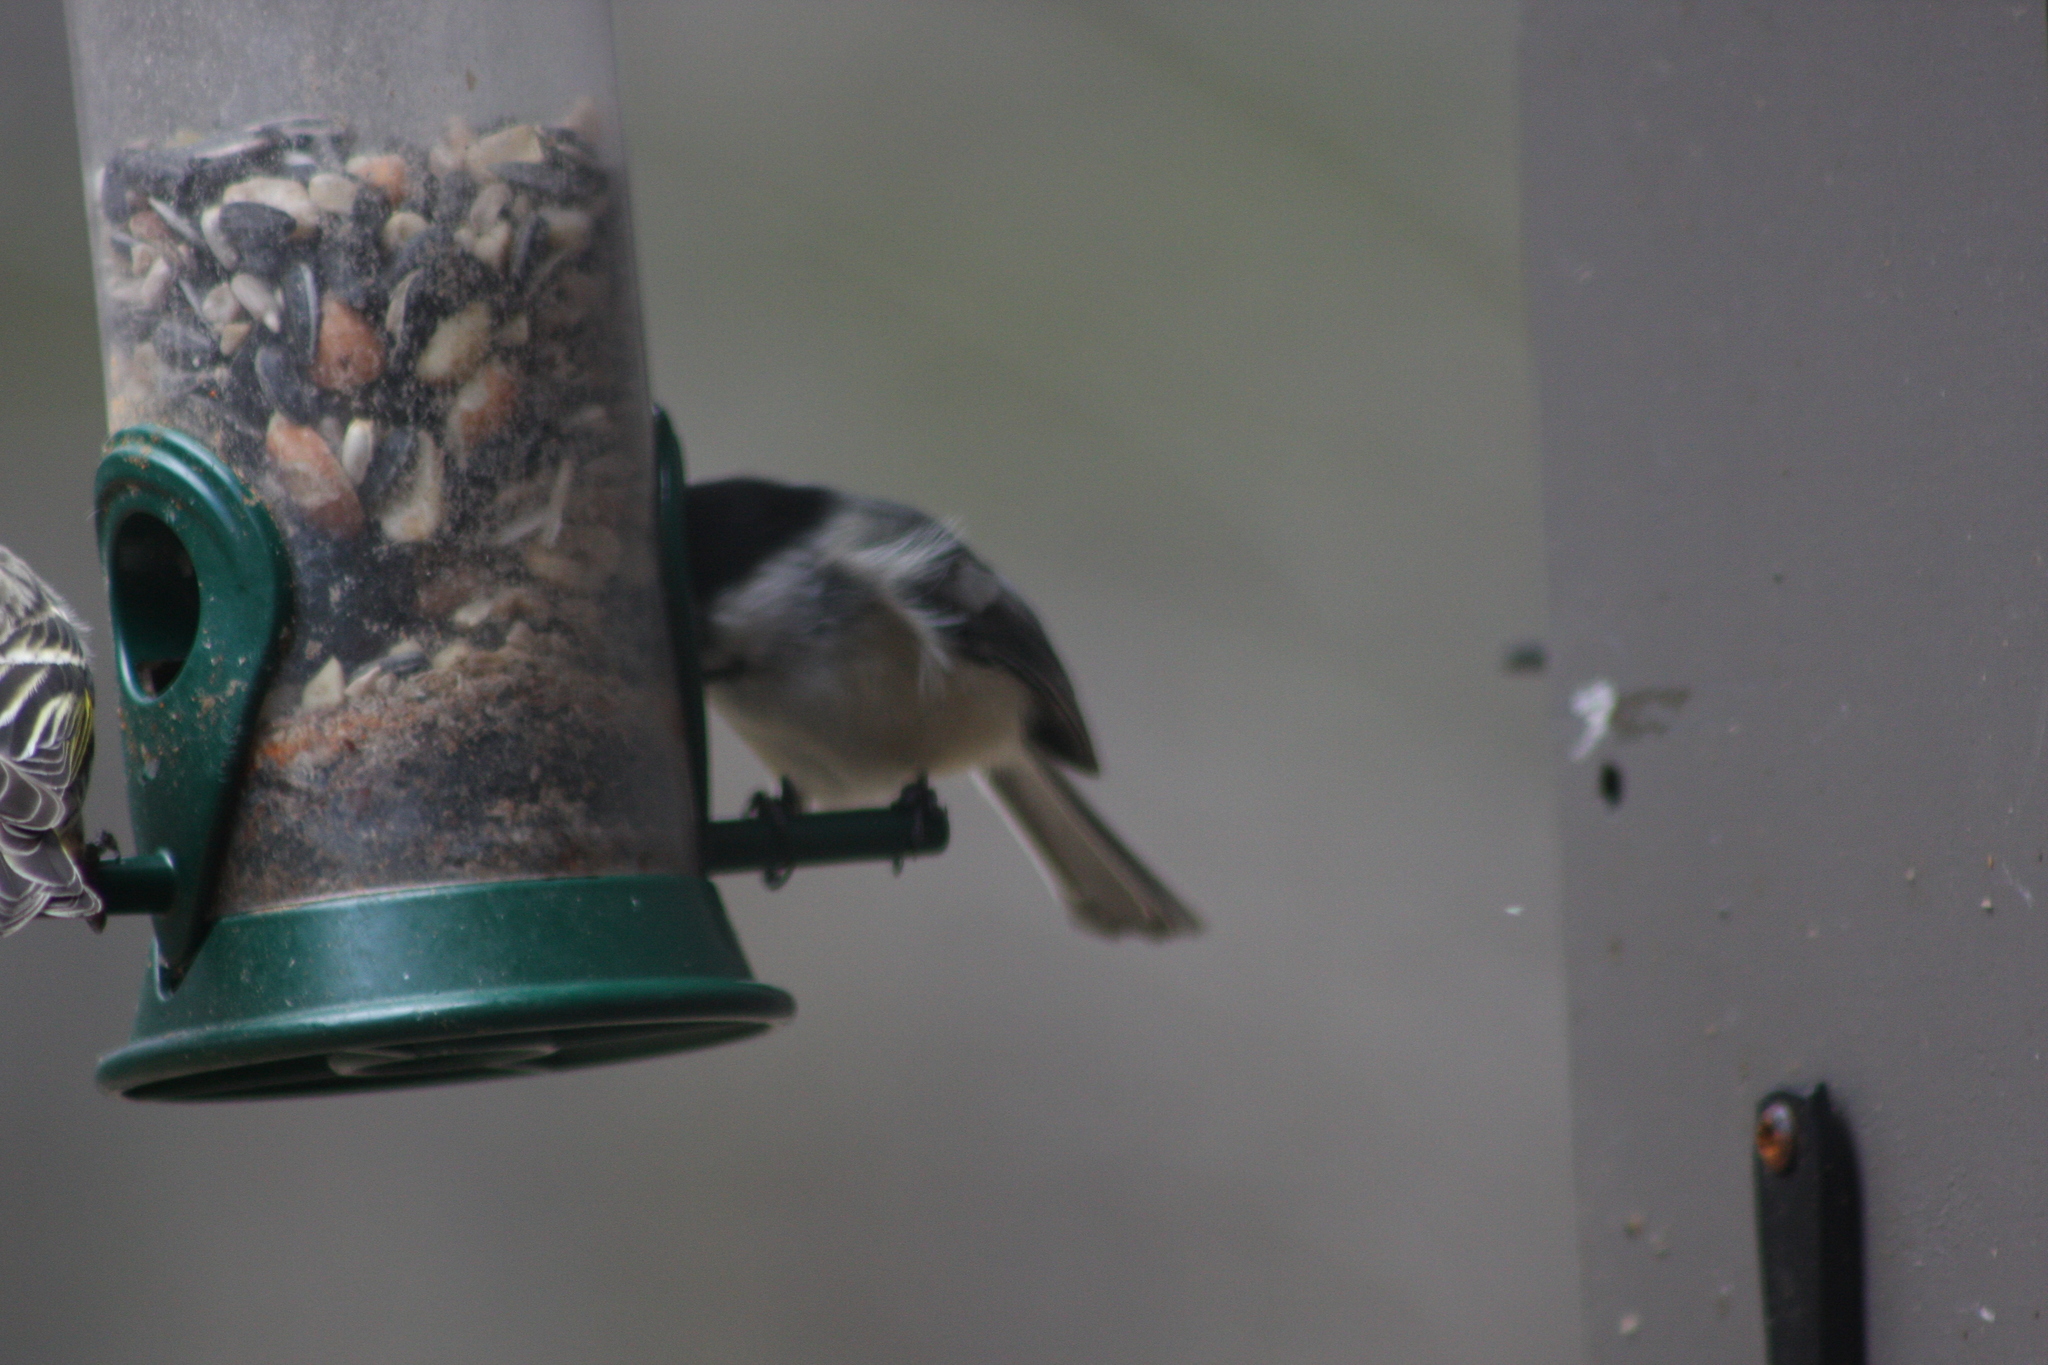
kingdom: Animalia
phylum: Chordata
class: Aves
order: Passeriformes
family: Paridae
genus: Poecile
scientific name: Poecile atricapillus
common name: Black-capped chickadee
